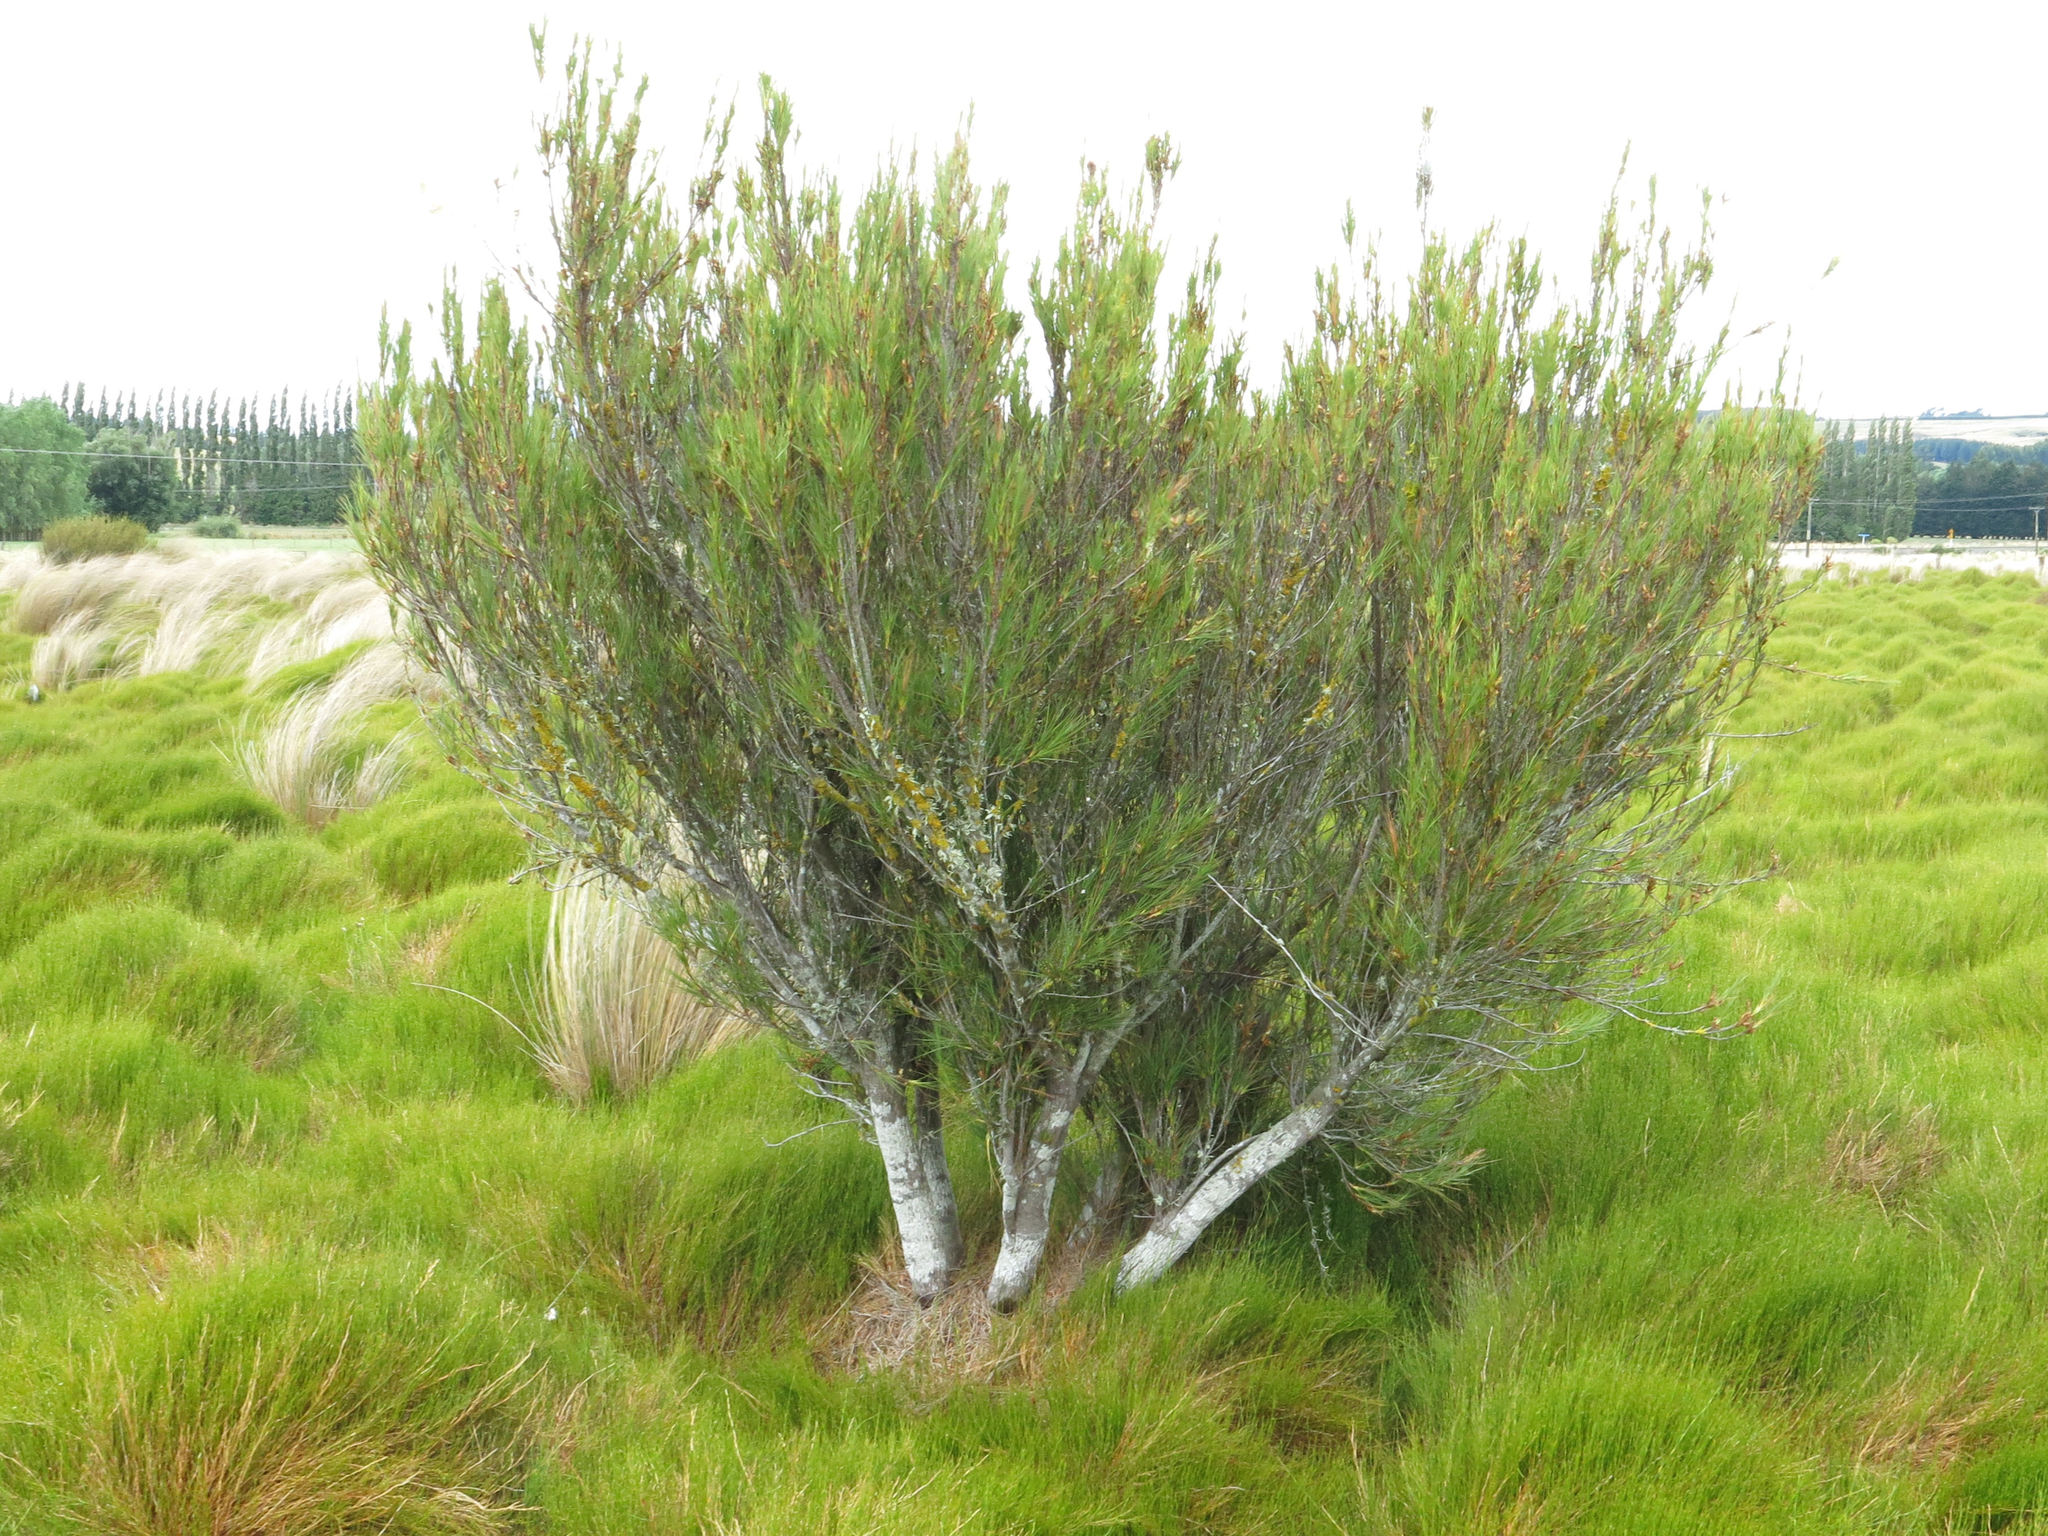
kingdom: Plantae
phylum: Tracheophyta
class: Magnoliopsida
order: Ericales
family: Ericaceae
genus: Dracophyllum
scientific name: Dracophyllum longifolium
